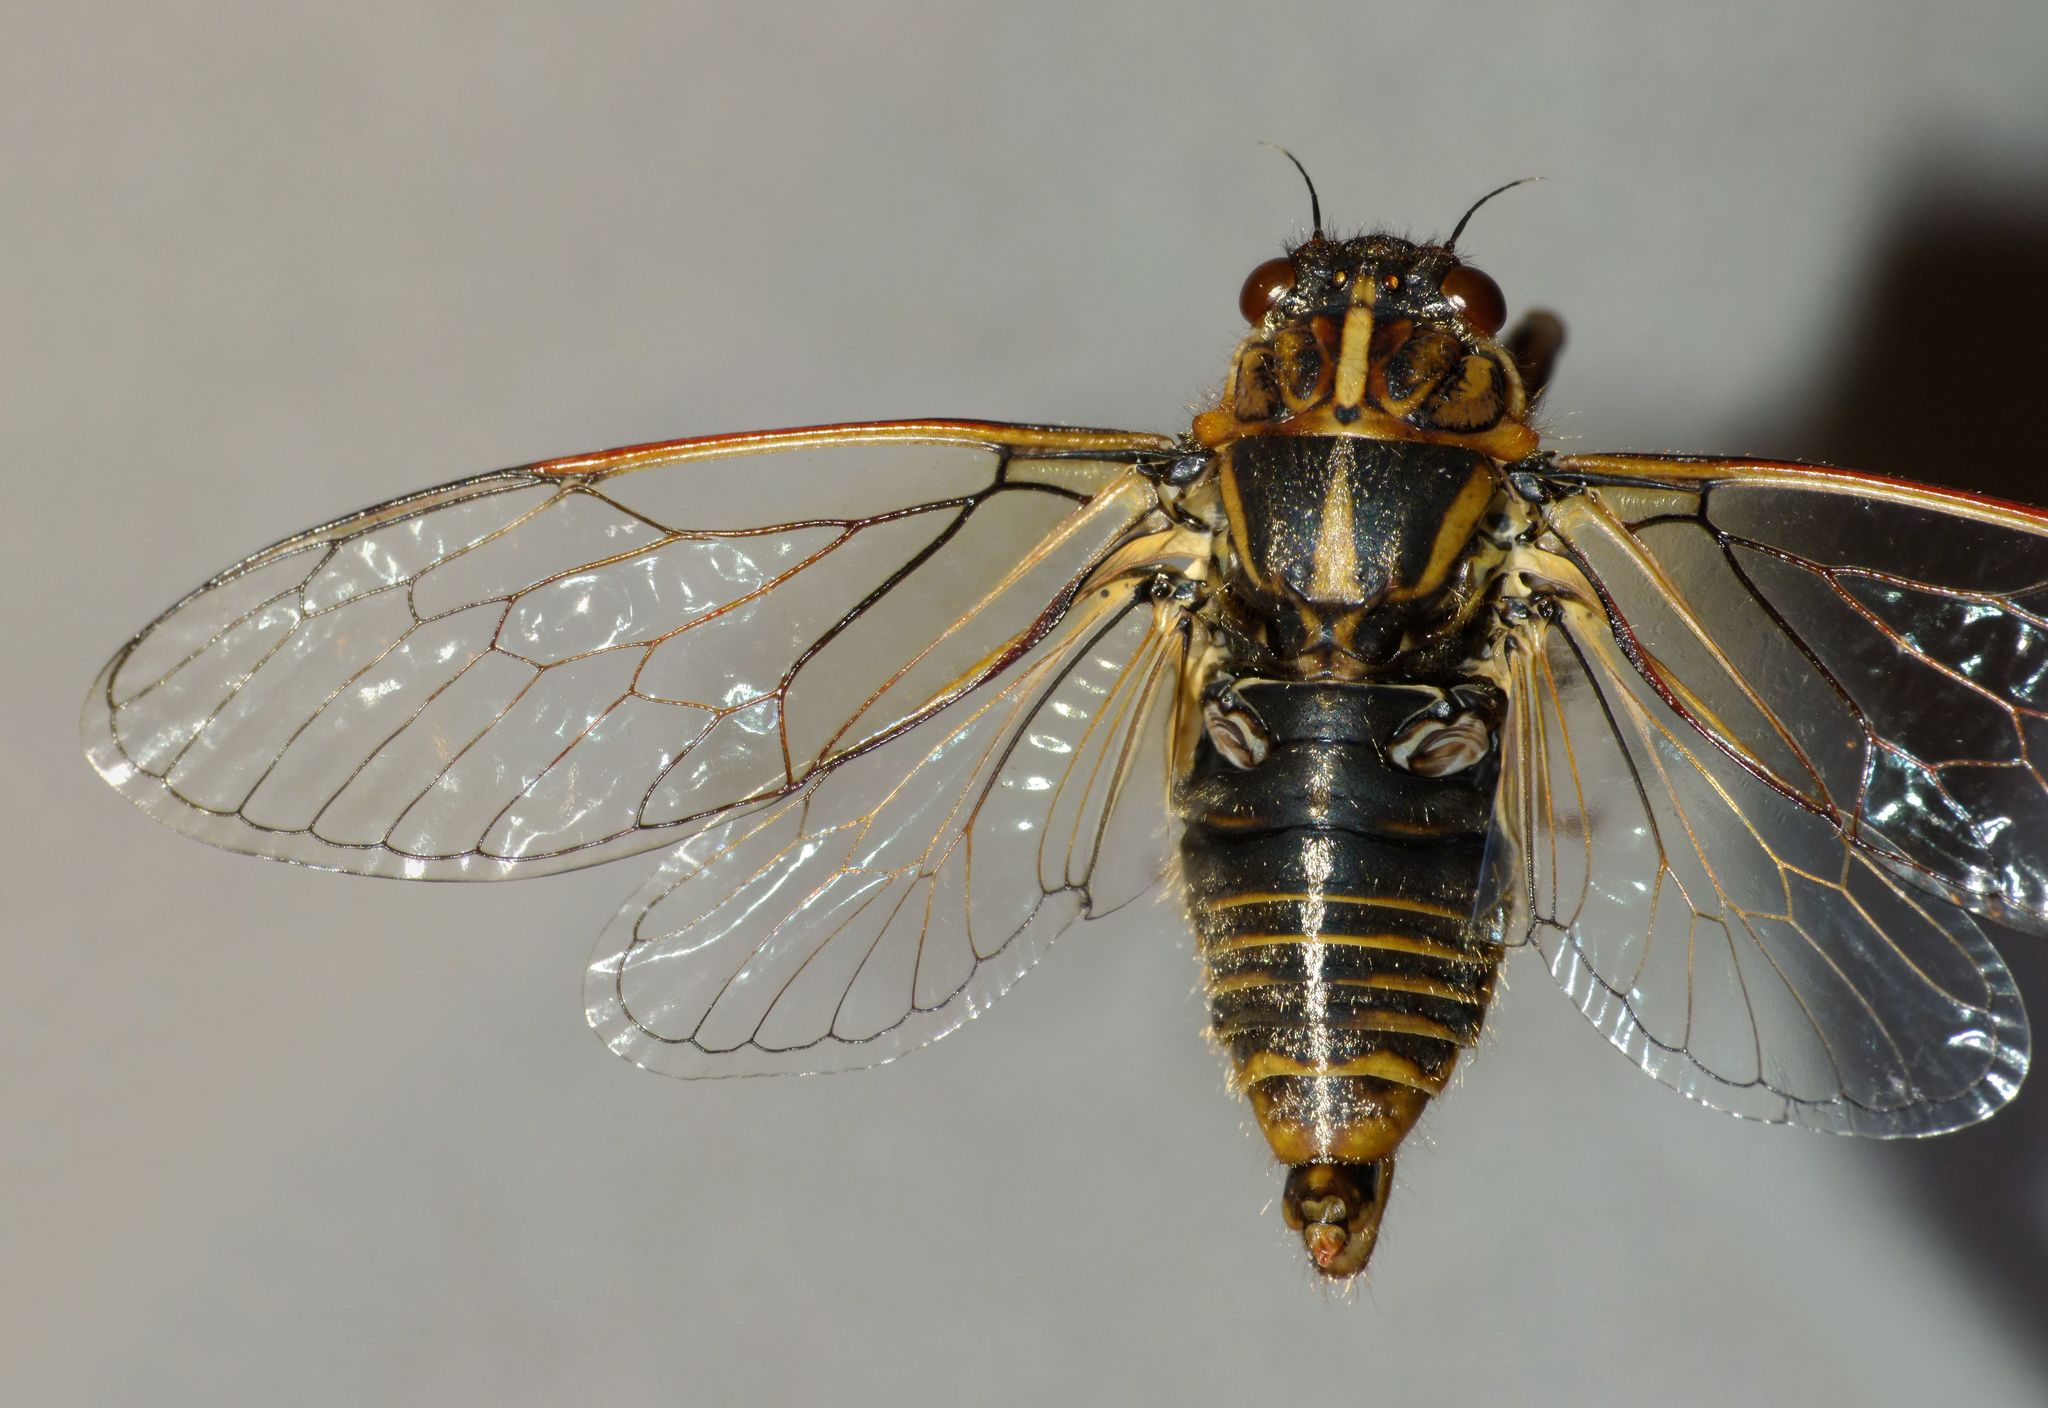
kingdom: Animalia
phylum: Arthropoda
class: Insecta
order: Hemiptera
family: Cicadidae
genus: Kikihia
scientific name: Kikihia angusta
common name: Tussock cicada
